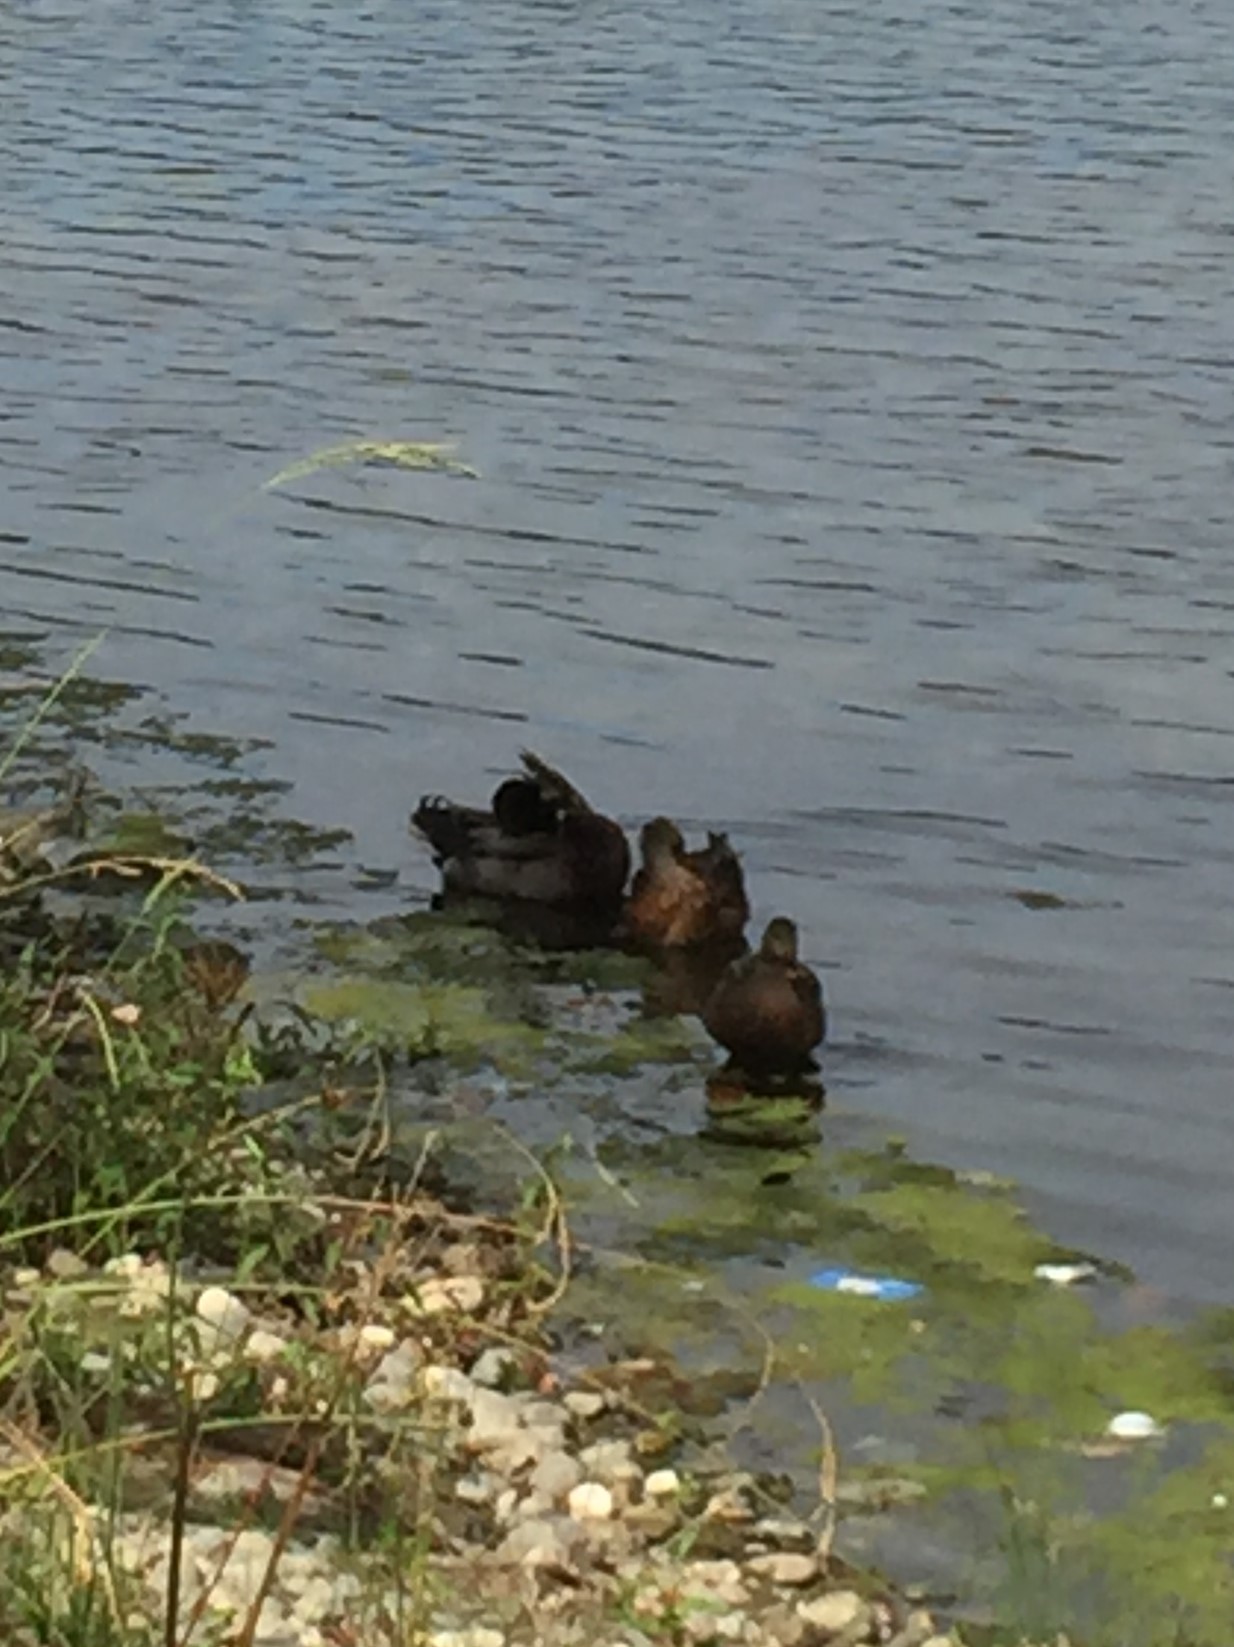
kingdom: Animalia
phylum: Chordata
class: Aves
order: Anseriformes
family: Anatidae
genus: Anas
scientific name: Anas platyrhynchos
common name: Mallard
